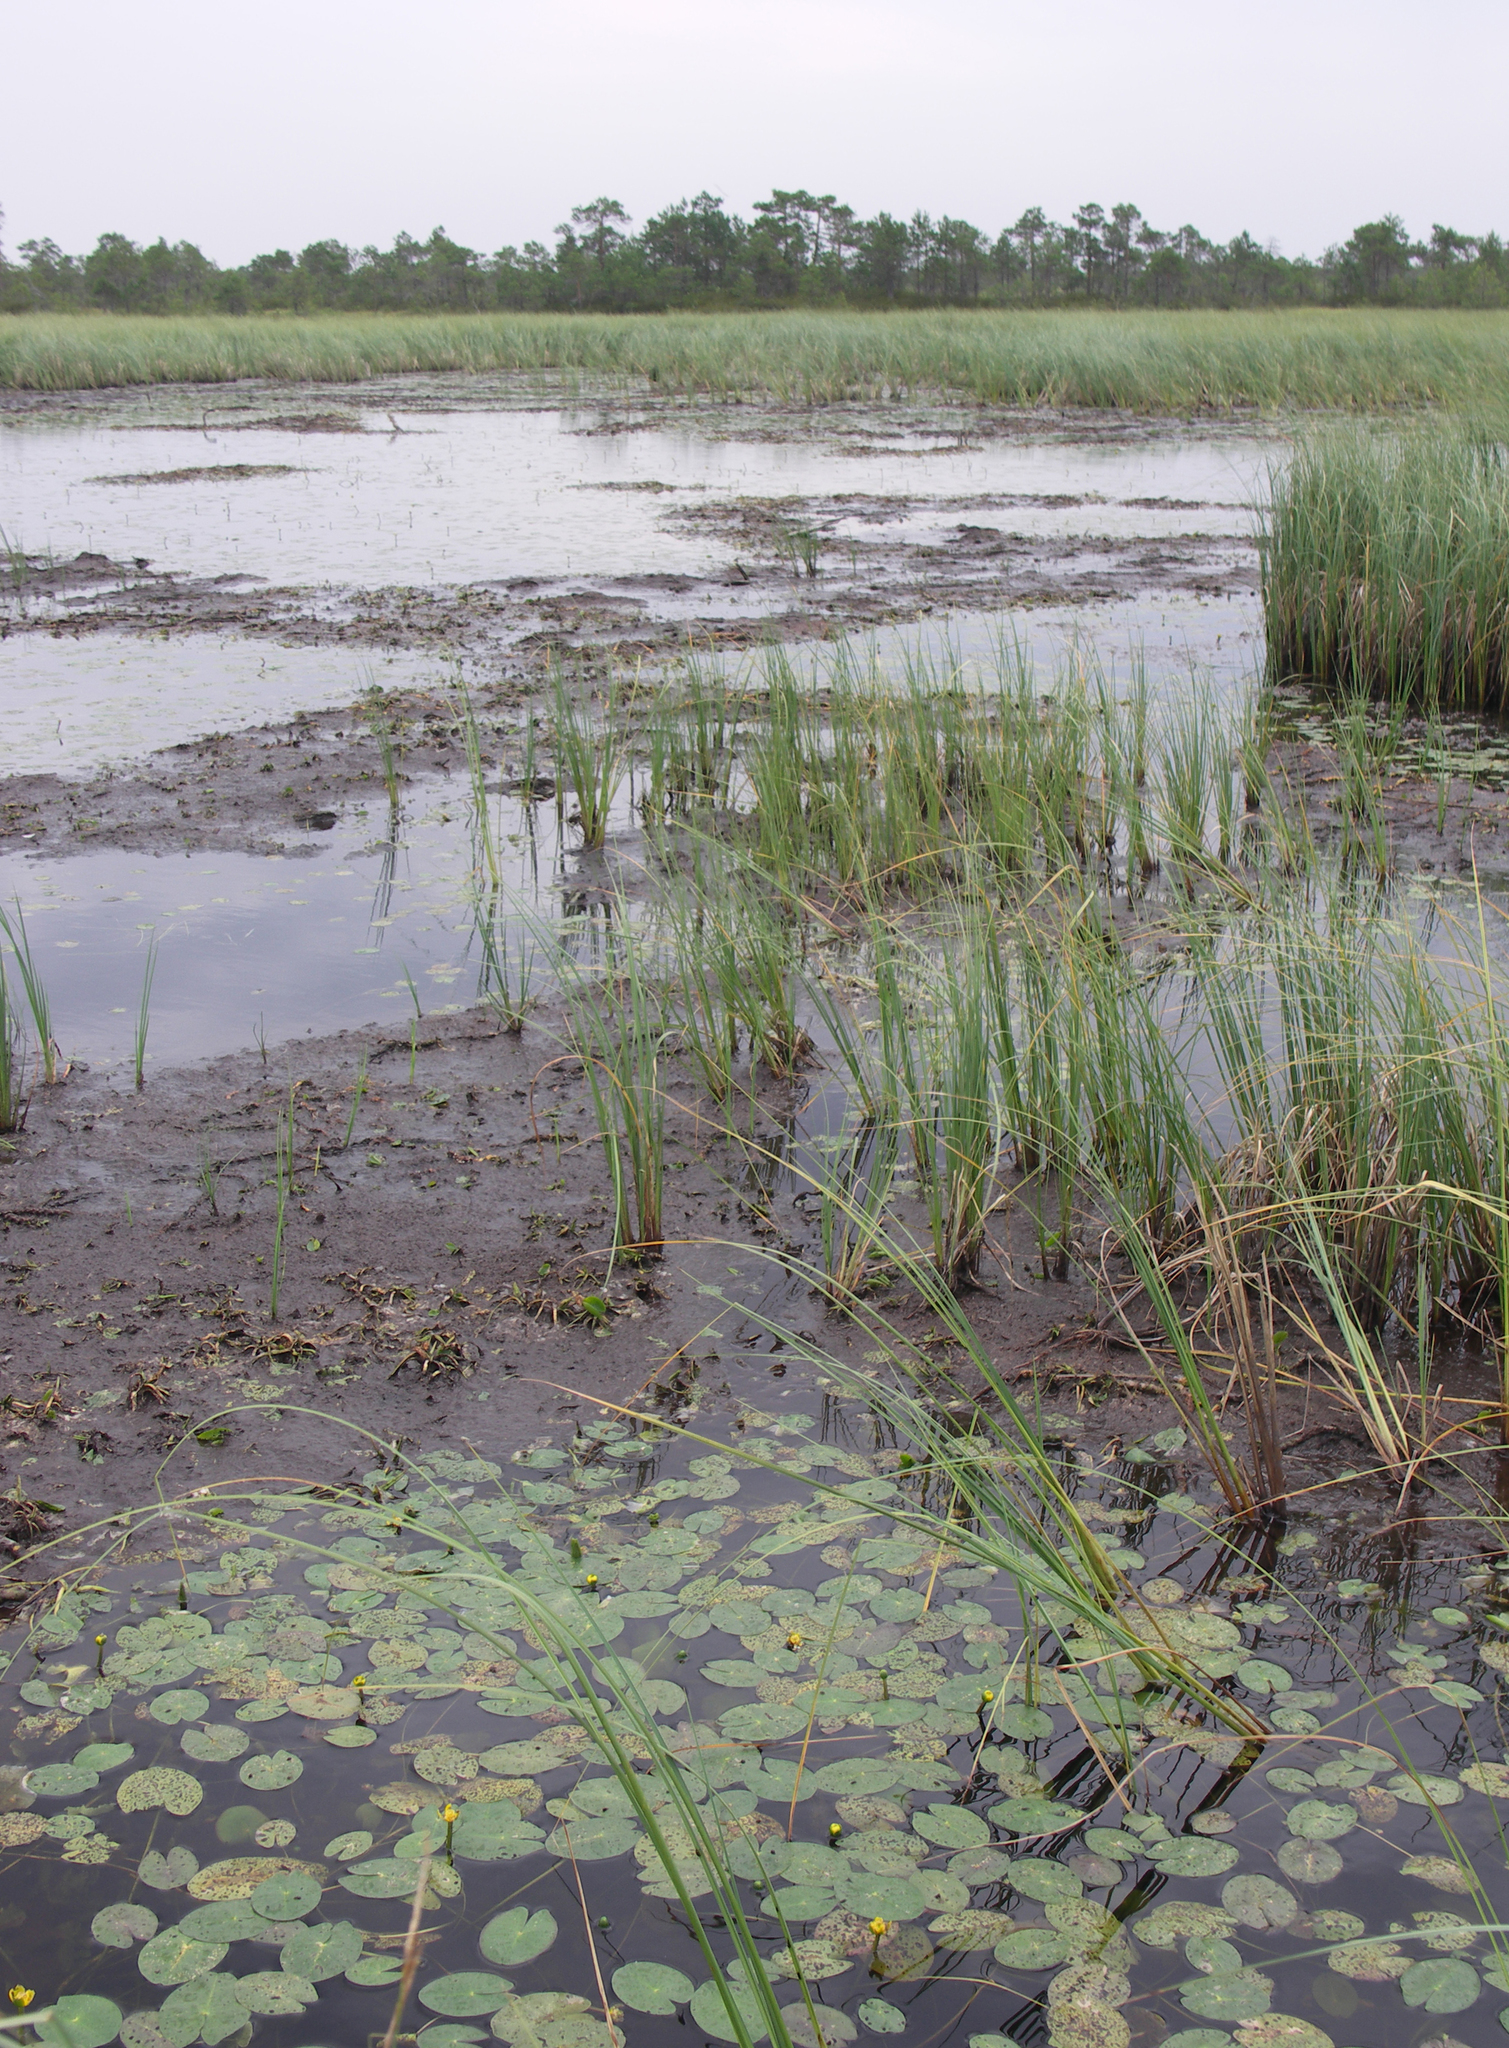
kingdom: Plantae
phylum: Tracheophyta
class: Magnoliopsida
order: Nymphaeales
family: Nymphaeaceae
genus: Nuphar
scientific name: Nuphar pumila
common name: Least water-lily
